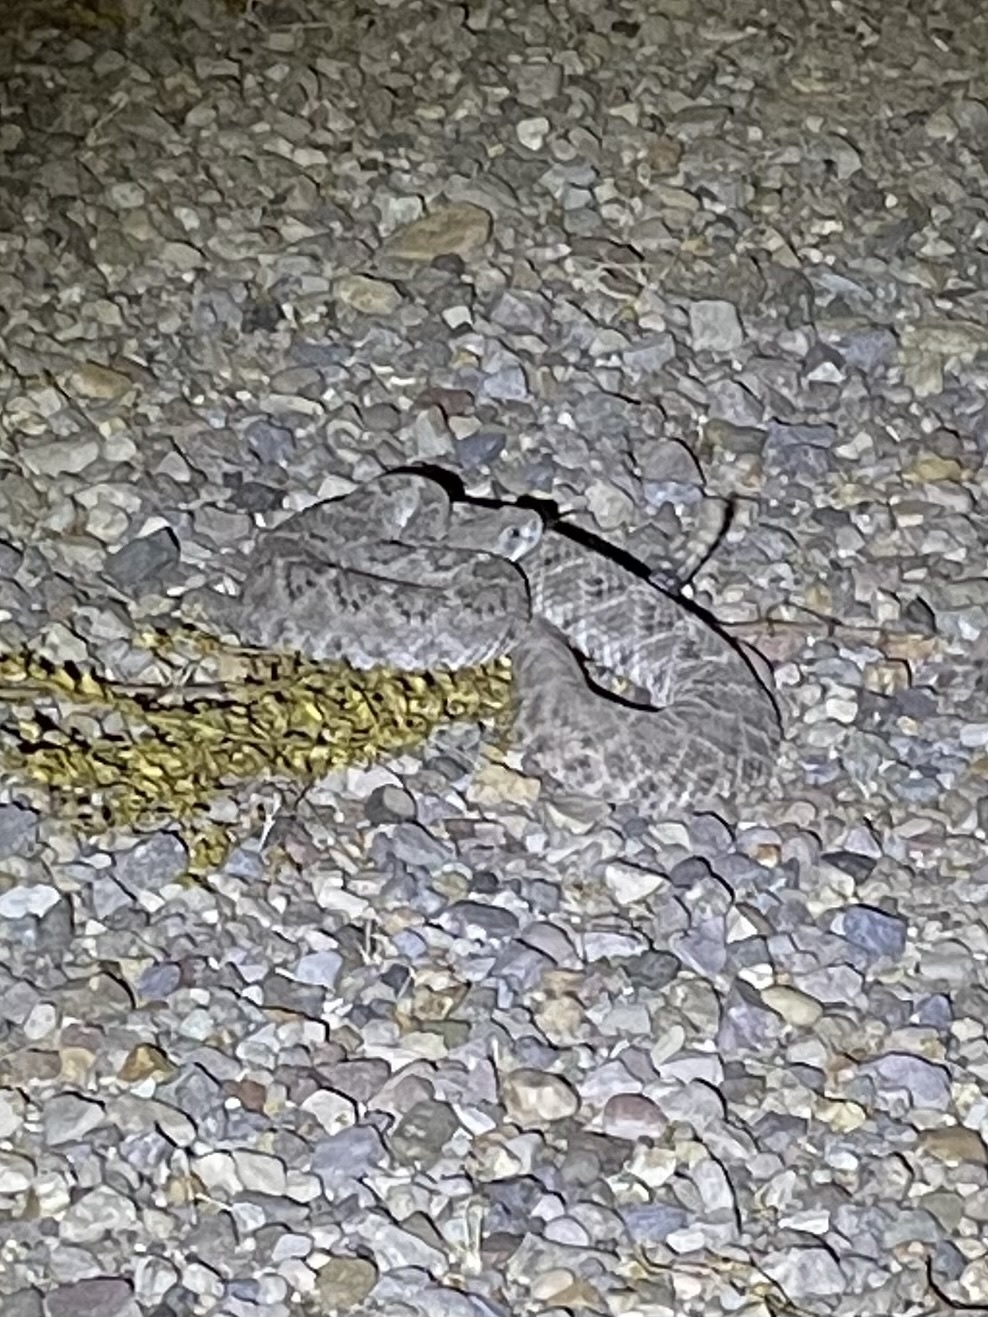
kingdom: Animalia
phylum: Chordata
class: Squamata
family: Viperidae
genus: Crotalus
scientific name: Crotalus atrox
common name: Western diamond-backed rattlesnake
